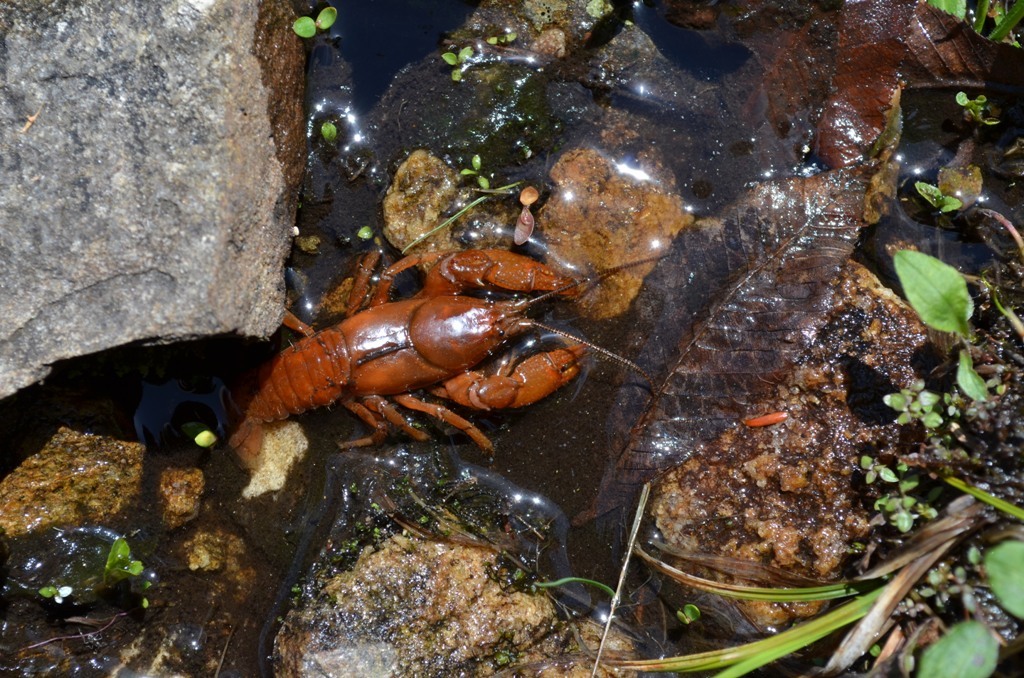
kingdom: Animalia
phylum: Arthropoda
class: Malacostraca
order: Decapoda
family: Cambaridae
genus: Cambarus
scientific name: Cambarus asperimanus
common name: Mitten crayfish
